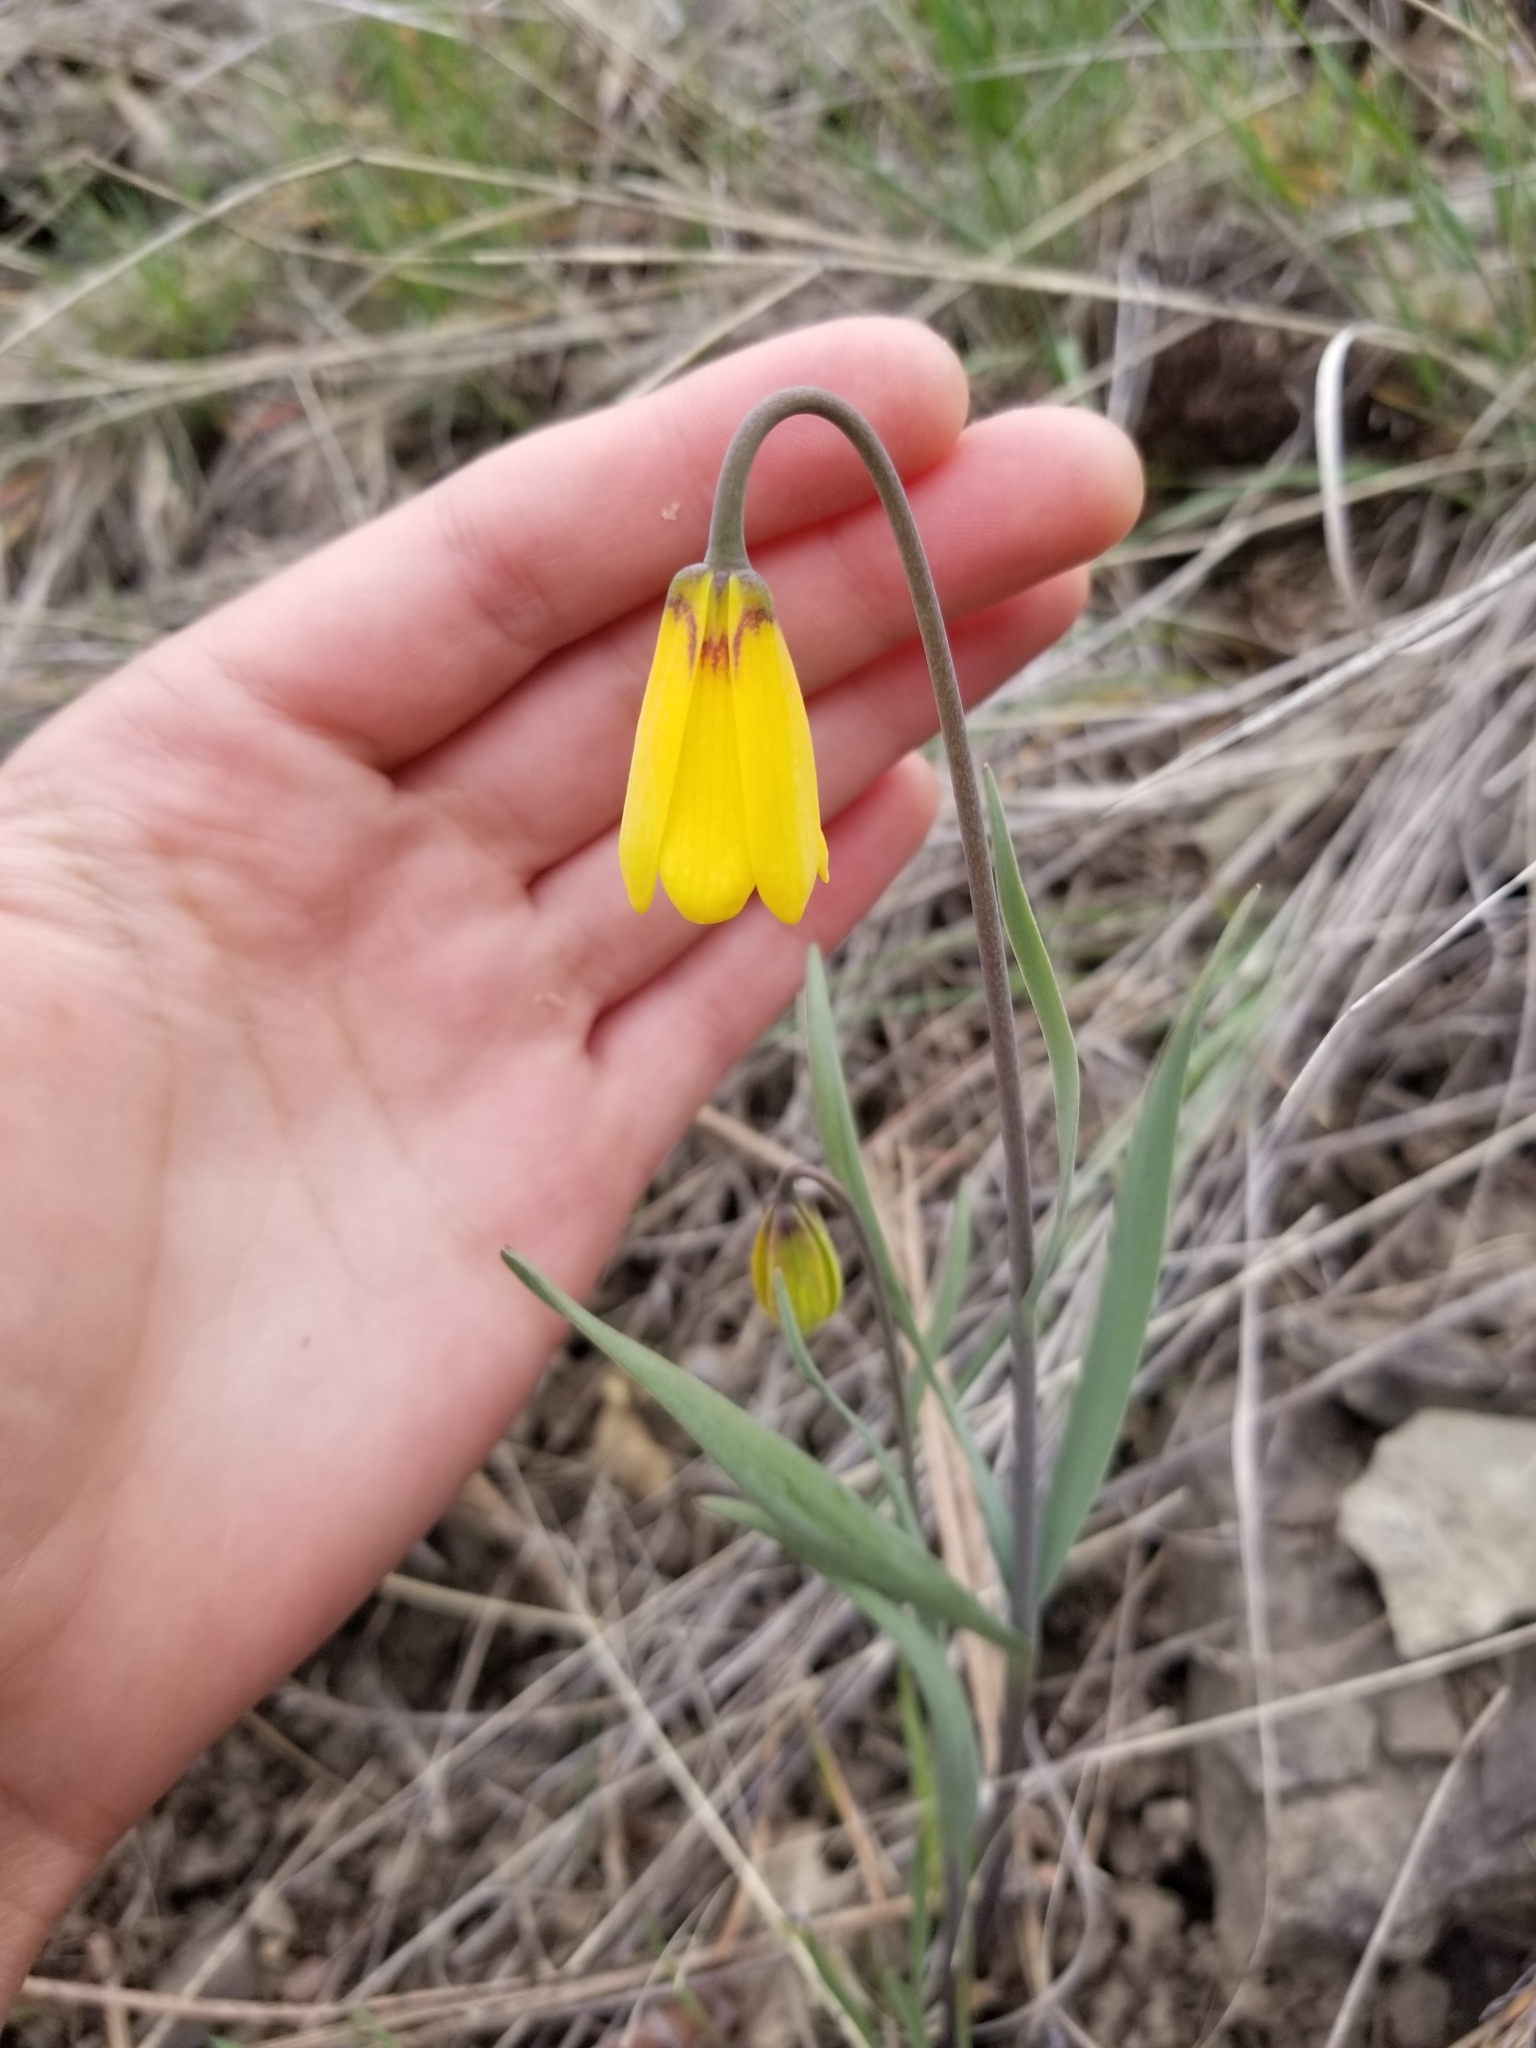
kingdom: Plantae
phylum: Tracheophyta
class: Liliopsida
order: Liliales
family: Liliaceae
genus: Fritillaria
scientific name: Fritillaria pudica
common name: Yellow fritillary
